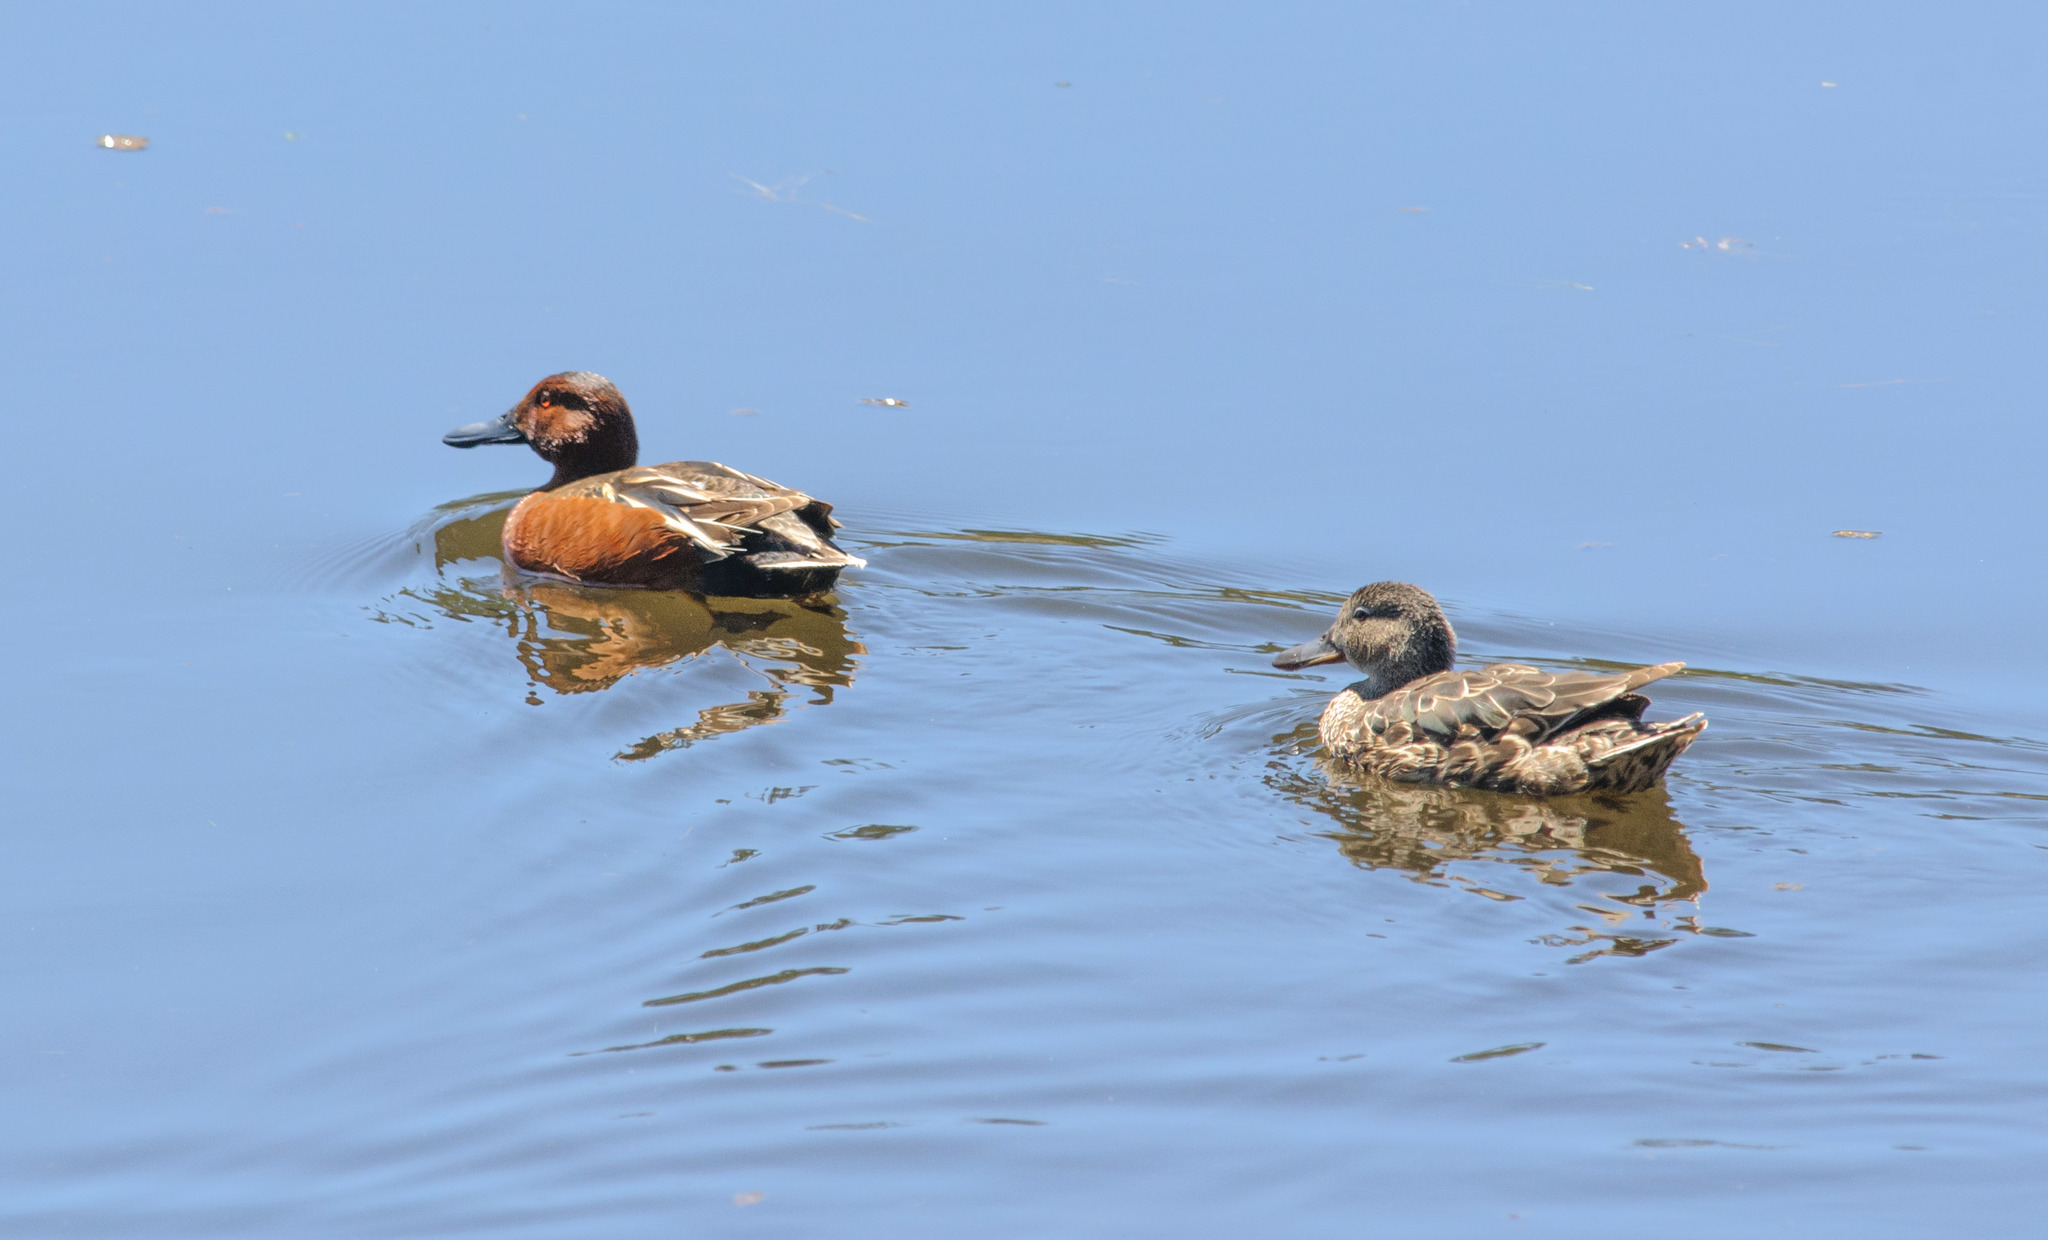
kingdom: Animalia
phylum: Chordata
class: Aves
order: Anseriformes
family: Anatidae
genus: Spatula
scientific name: Spatula cyanoptera
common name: Cinnamon teal
